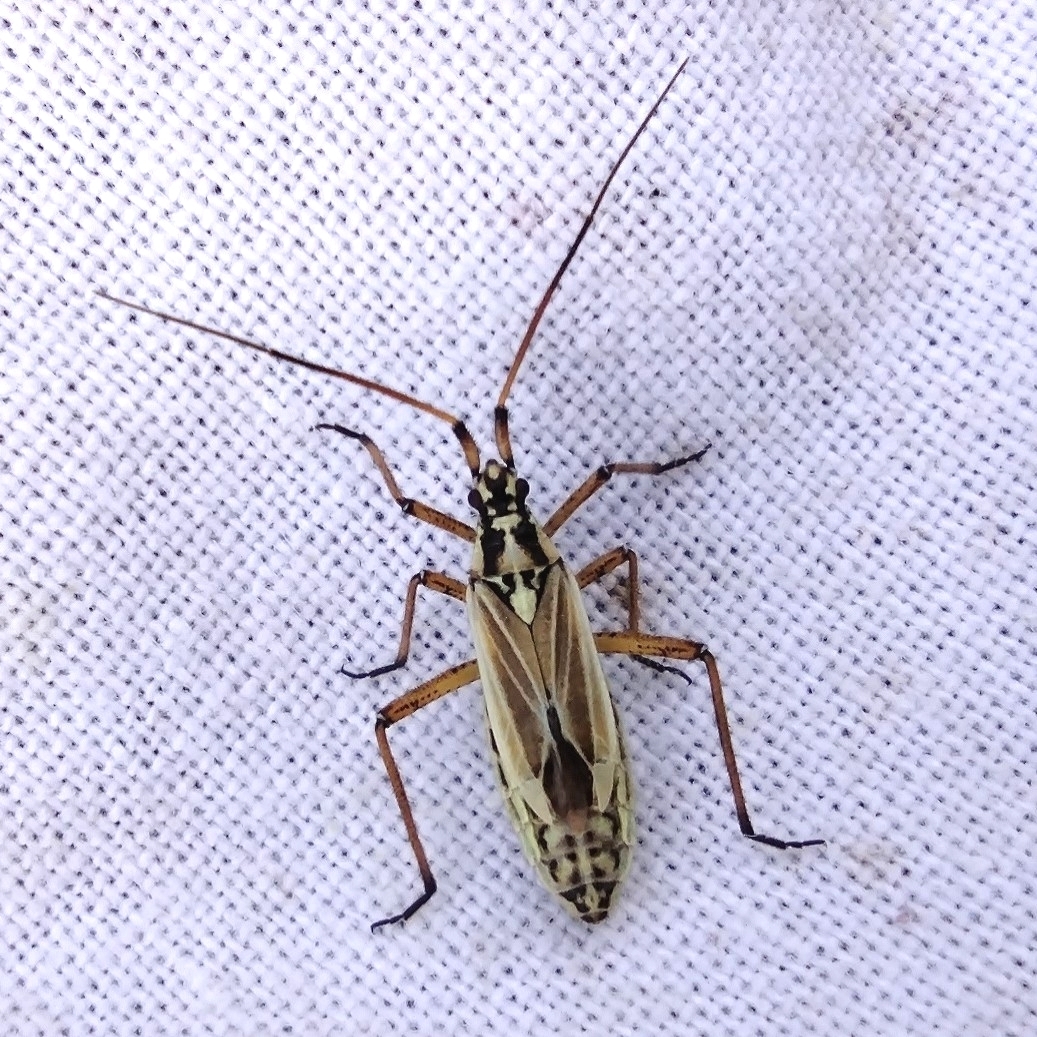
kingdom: Animalia
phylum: Arthropoda
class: Insecta
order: Hemiptera
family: Miridae
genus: Leptopterna
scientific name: Leptopterna dolabrata
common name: Meadow plant bug
